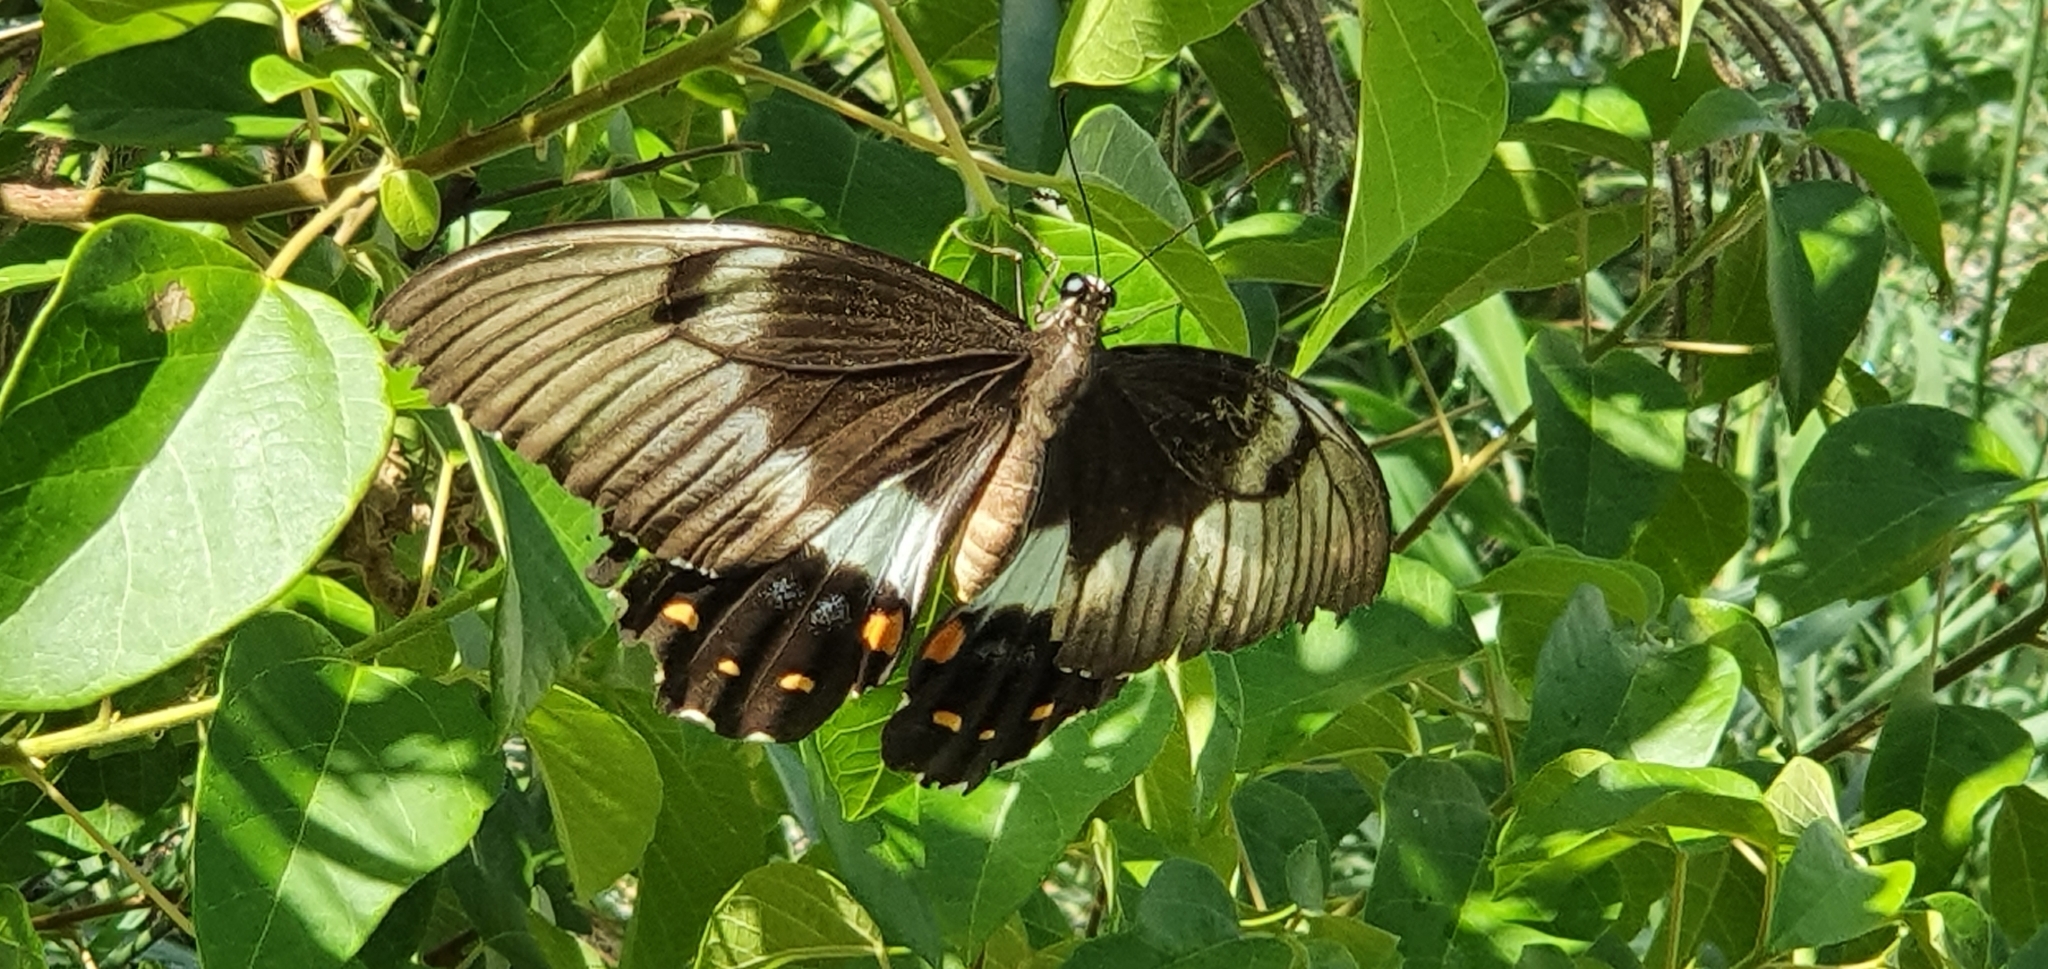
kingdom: Animalia
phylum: Arthropoda
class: Insecta
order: Lepidoptera
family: Papilionidae
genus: Papilio
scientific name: Papilio aegeus
